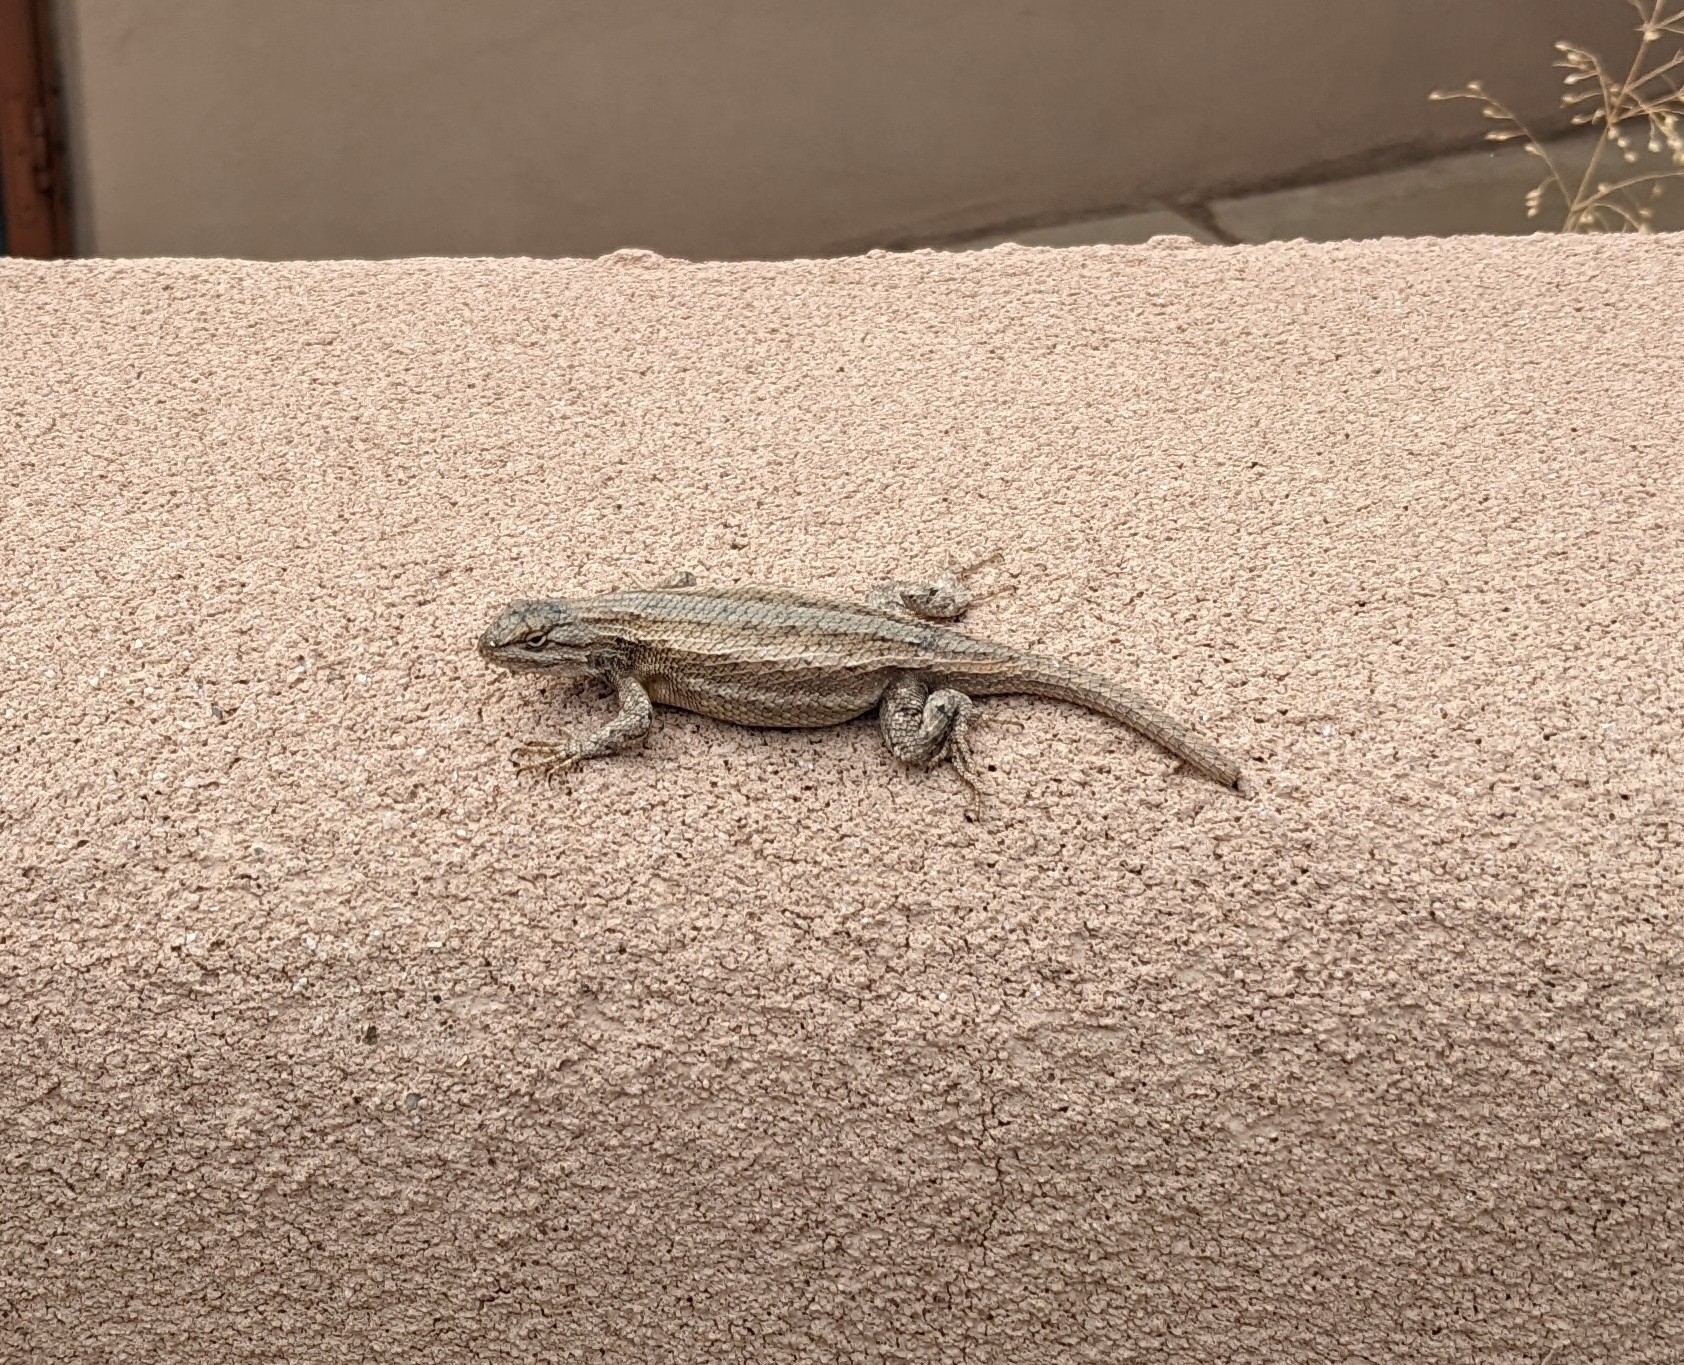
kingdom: Animalia
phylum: Chordata
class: Squamata
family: Phrynosomatidae
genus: Sceloporus
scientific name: Sceloporus
